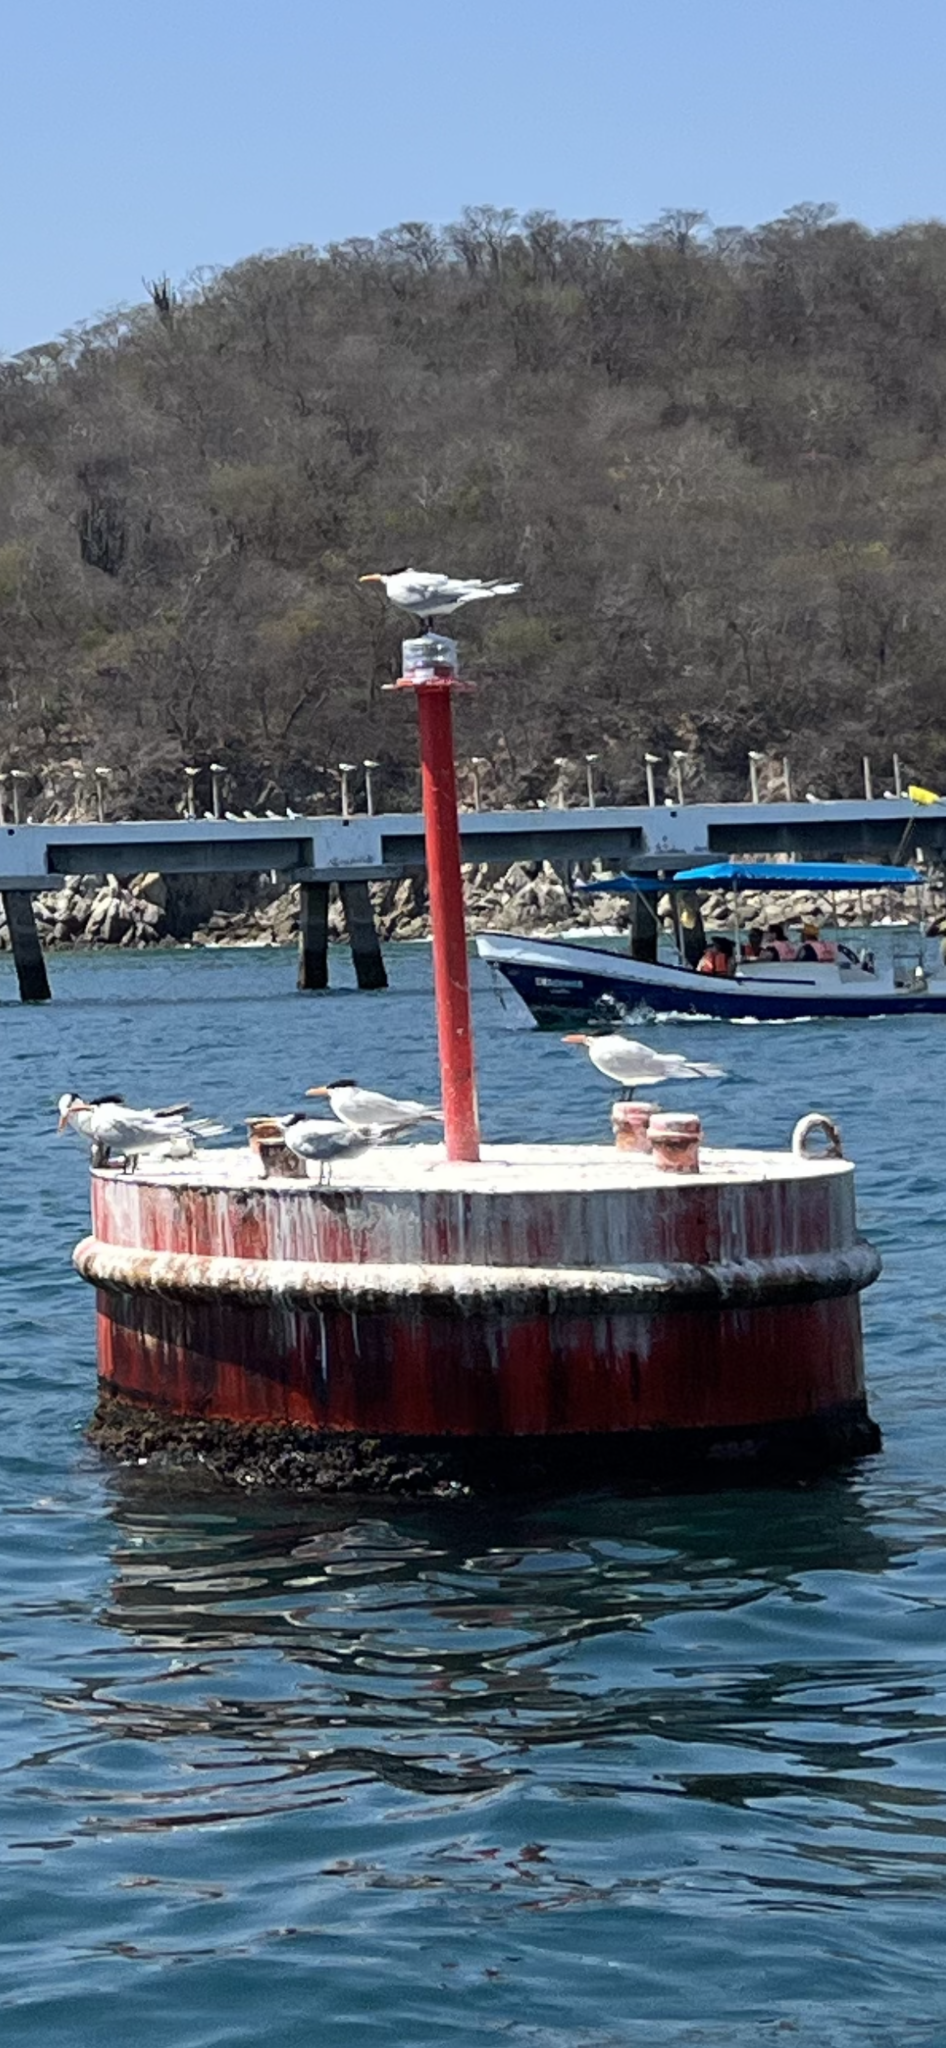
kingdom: Animalia
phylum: Chordata
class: Aves
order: Charadriiformes
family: Laridae
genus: Thalasseus
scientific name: Thalasseus maximus
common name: Royal tern
